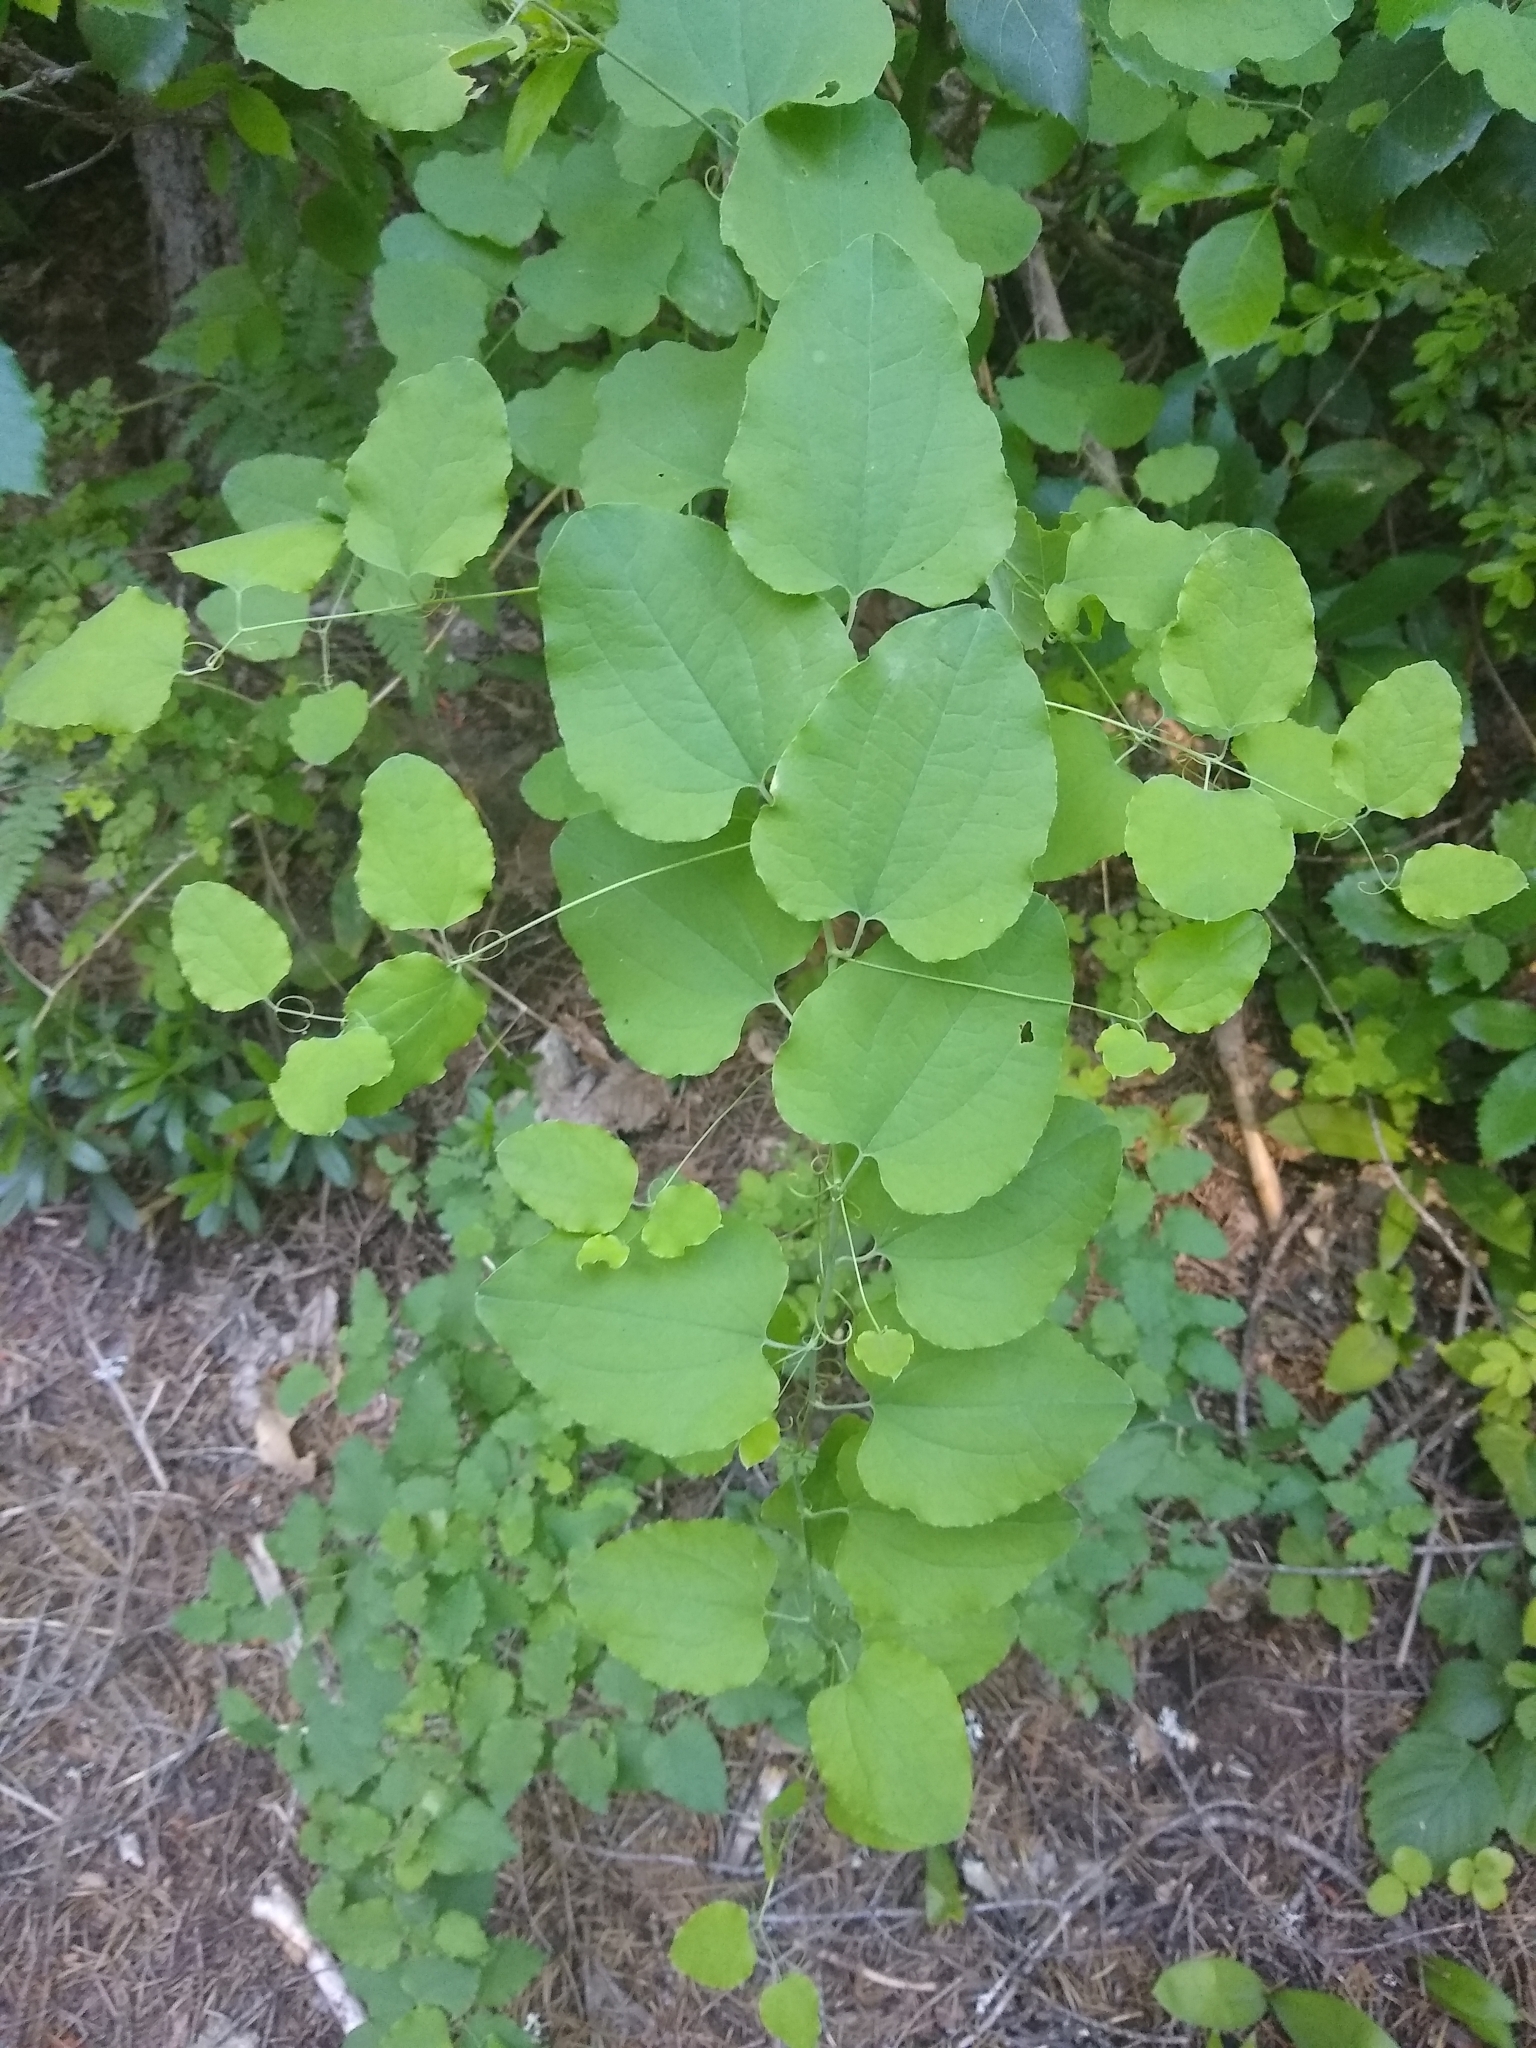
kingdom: Plantae
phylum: Tracheophyta
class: Liliopsida
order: Liliales
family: Smilacaceae
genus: Smilax
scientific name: Smilax jamesii
